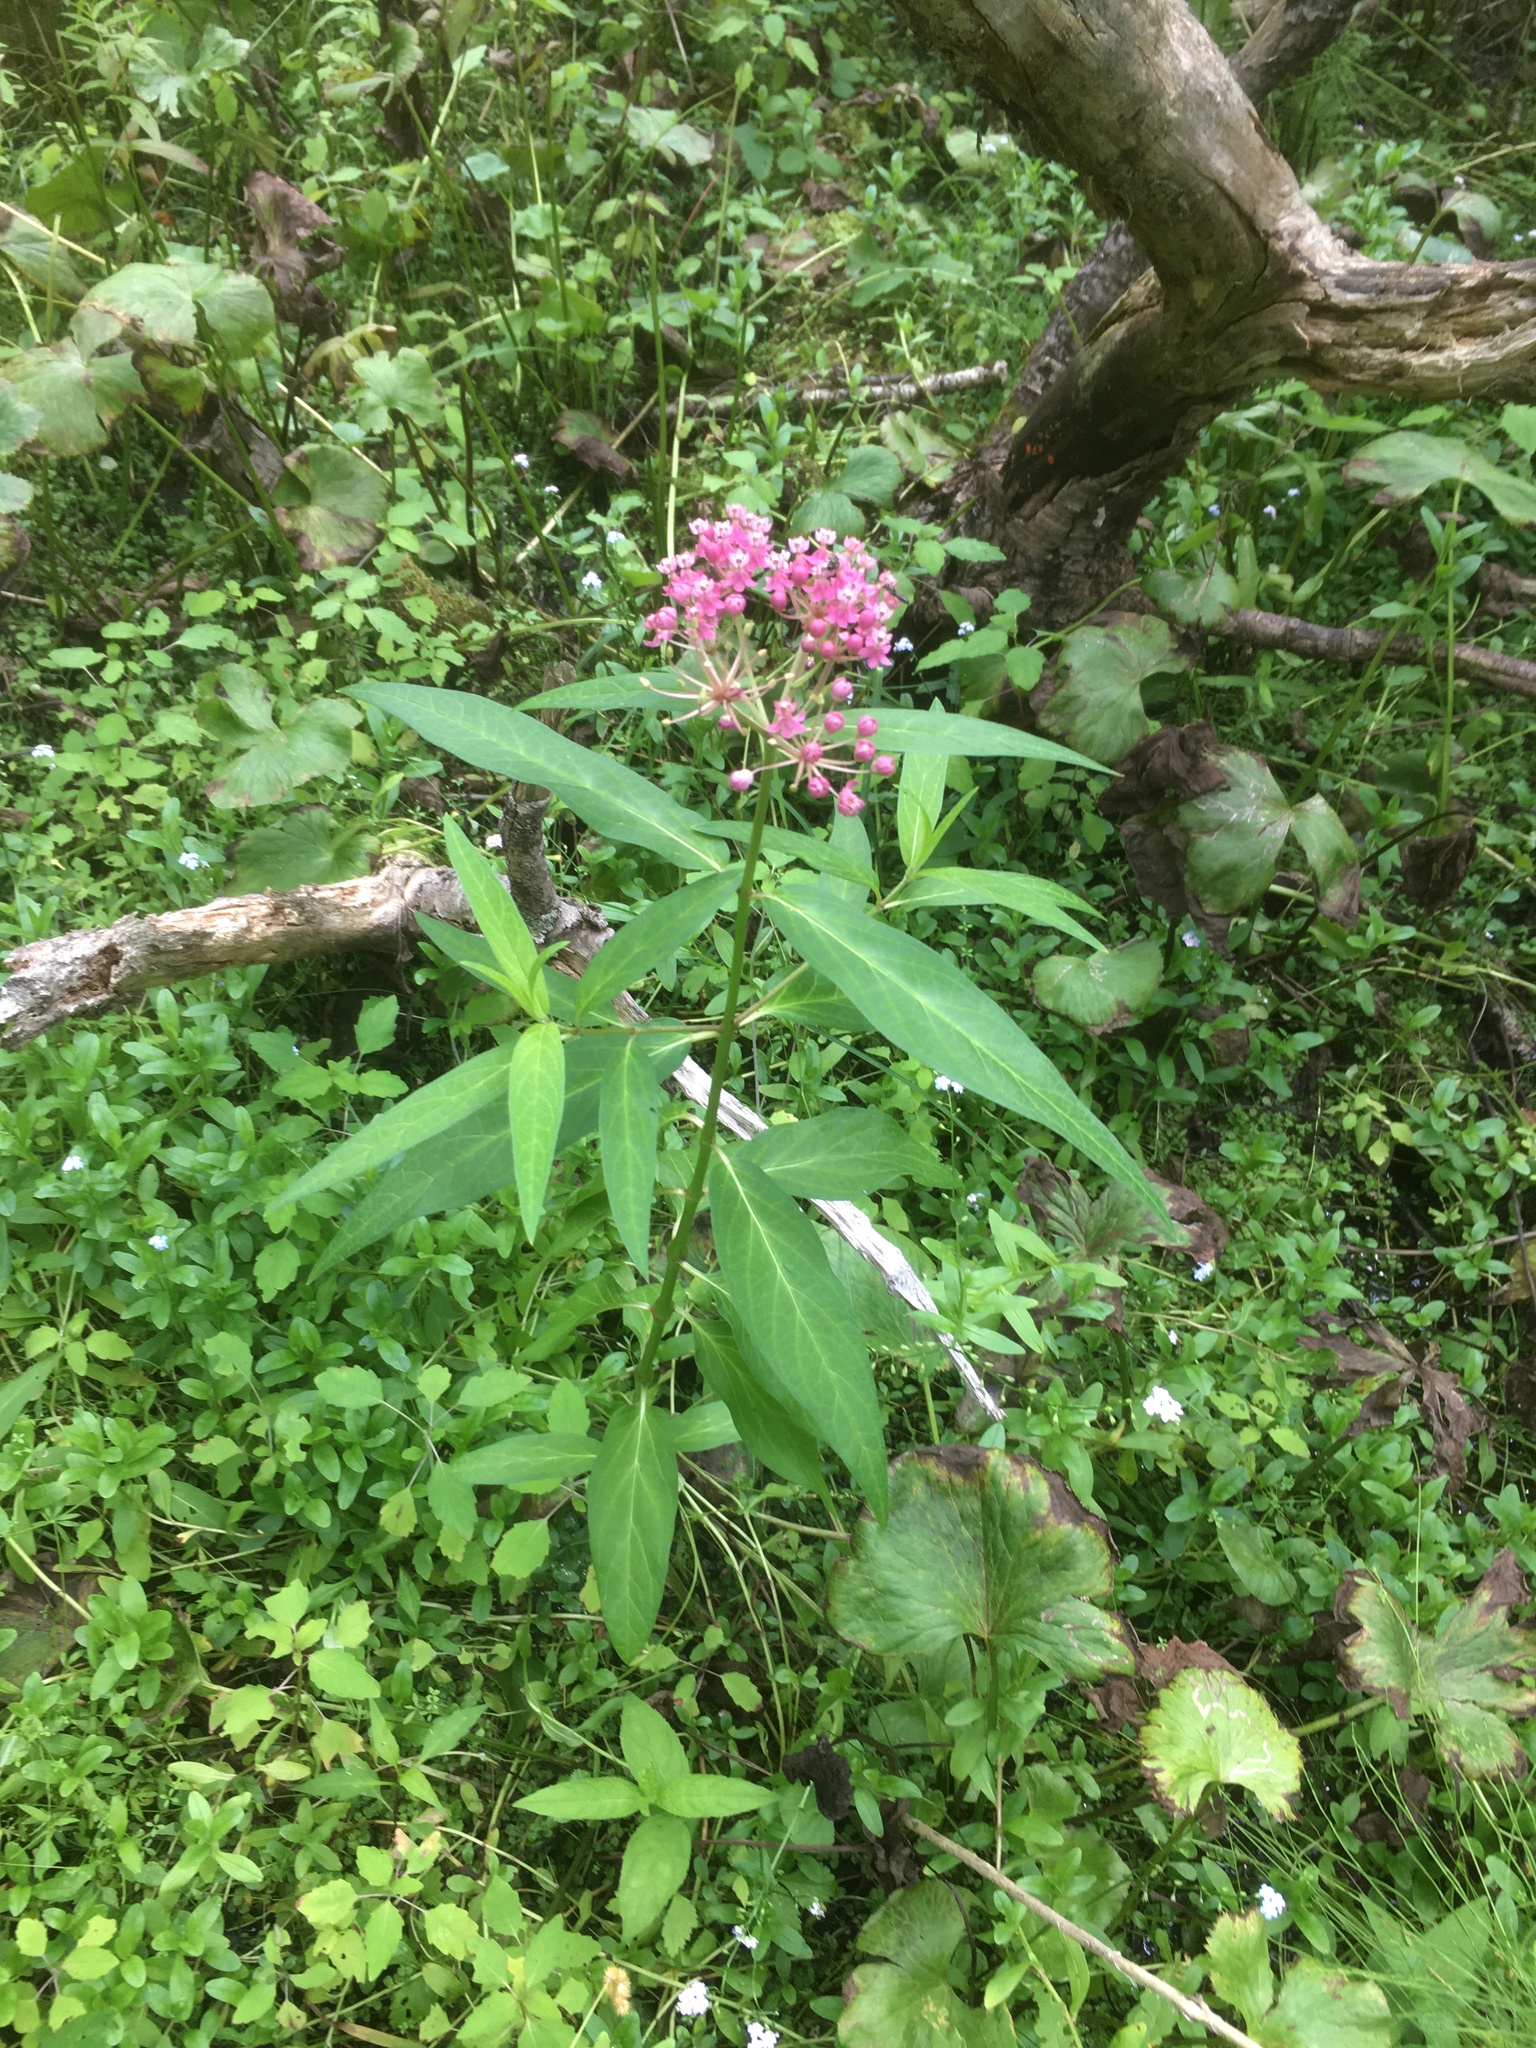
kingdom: Plantae
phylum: Tracheophyta
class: Magnoliopsida
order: Gentianales
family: Apocynaceae
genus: Asclepias
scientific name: Asclepias incarnata
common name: Swamp milkweed
